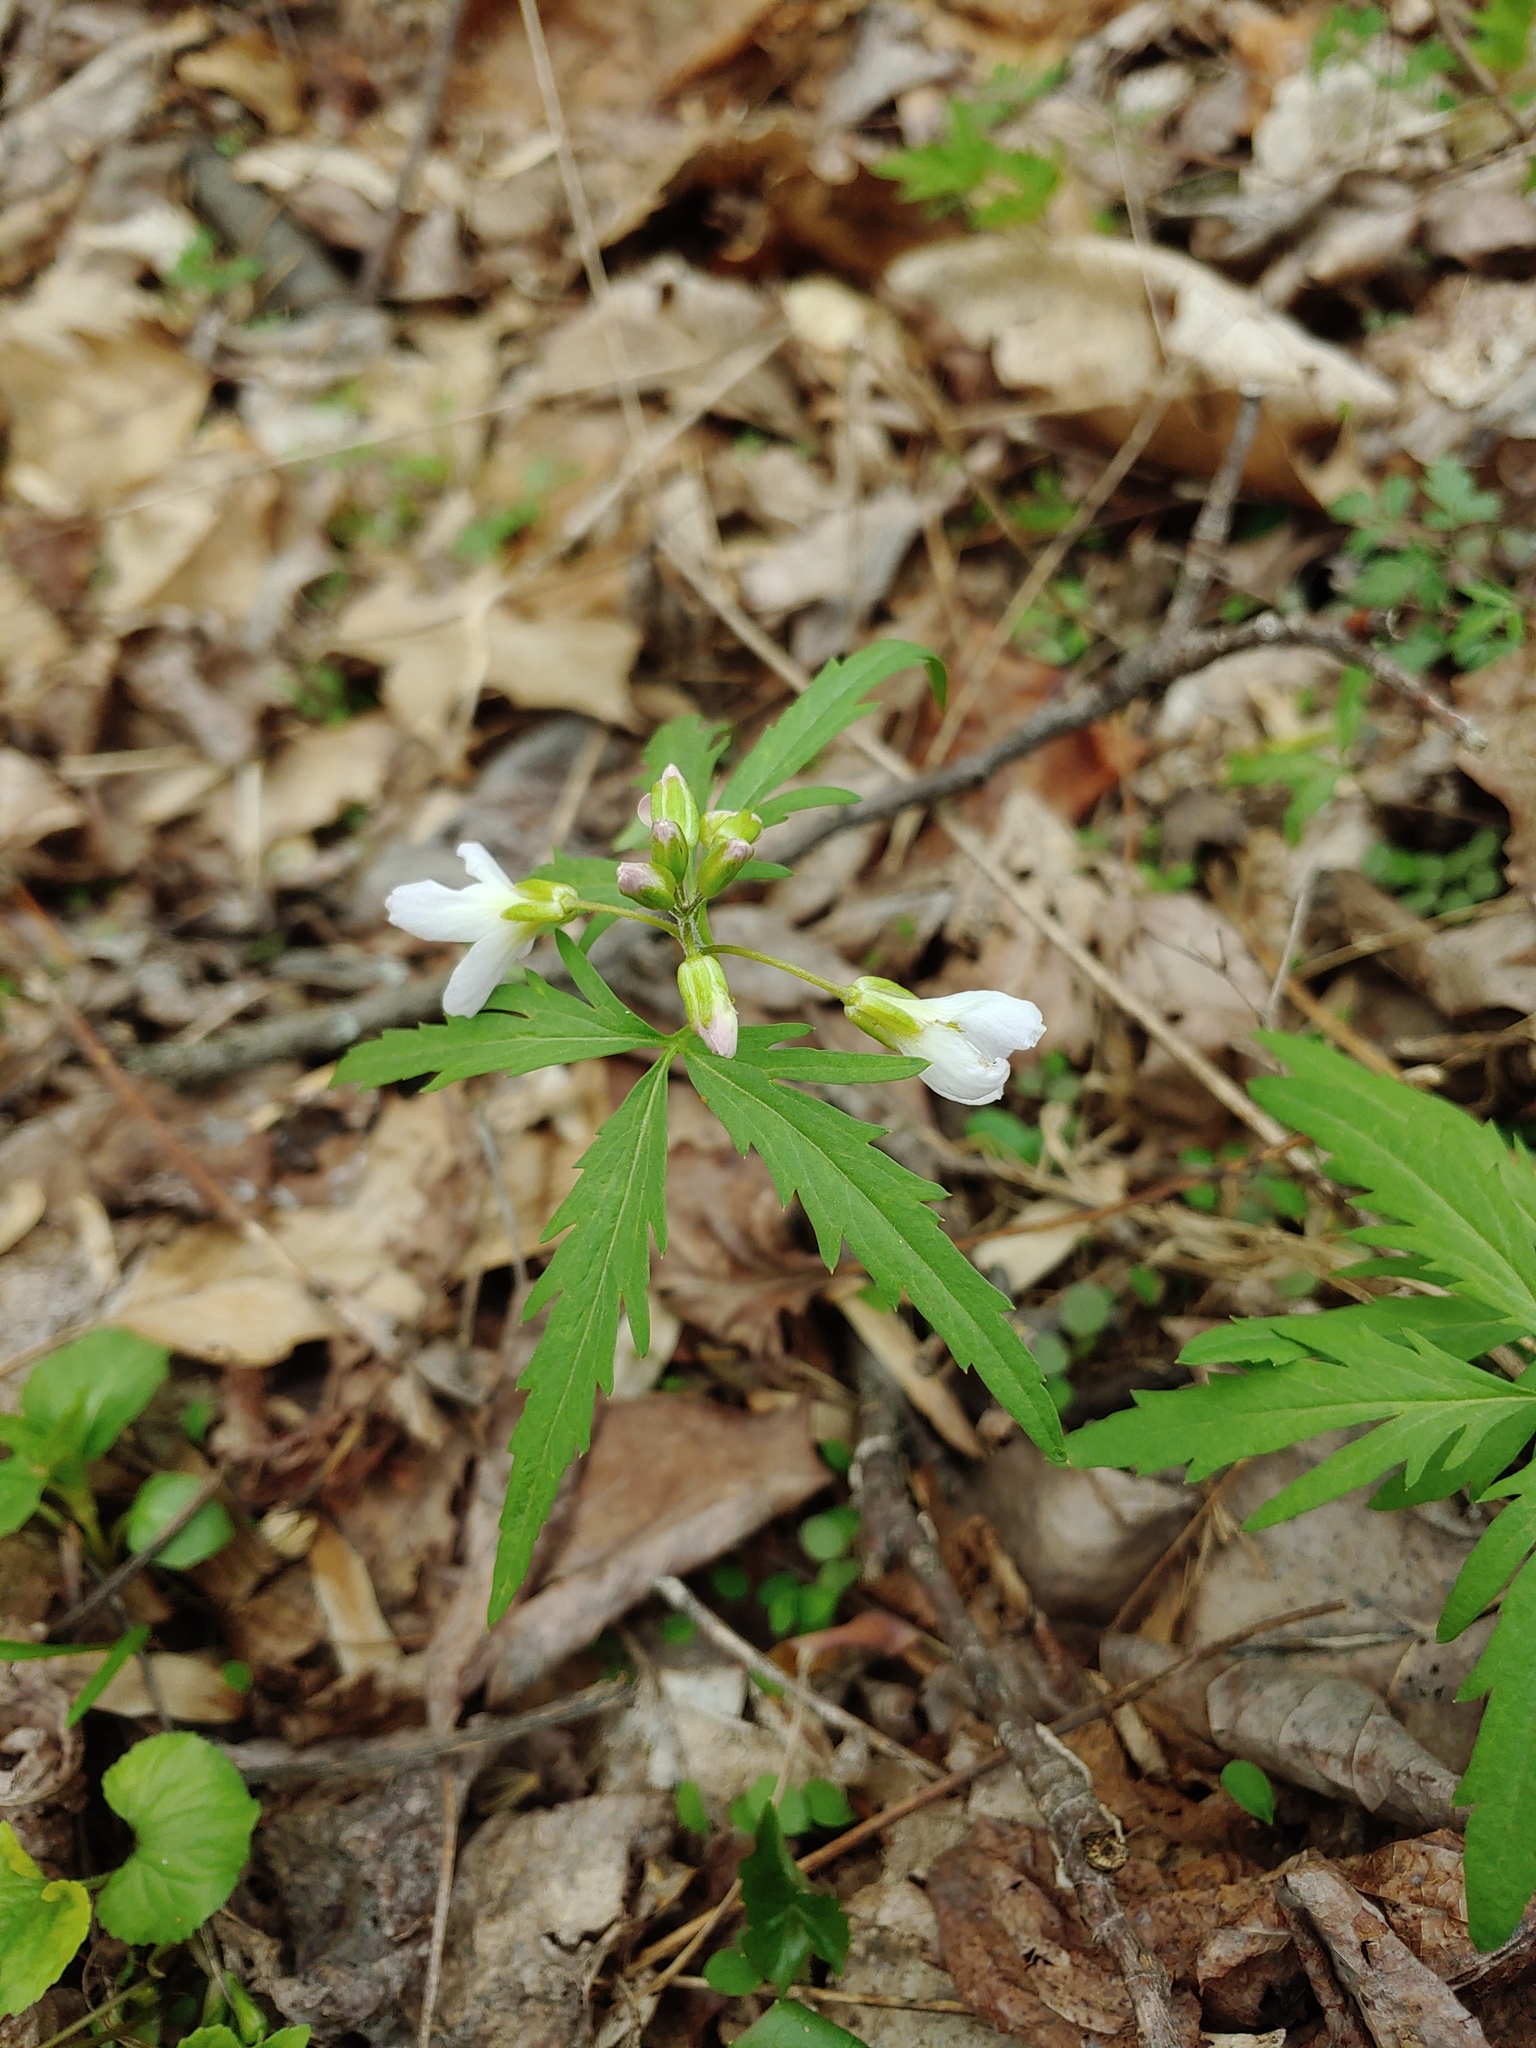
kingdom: Plantae
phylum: Tracheophyta
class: Magnoliopsida
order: Brassicales
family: Brassicaceae
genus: Cardamine
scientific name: Cardamine concatenata
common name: Cut-leaf toothcup
